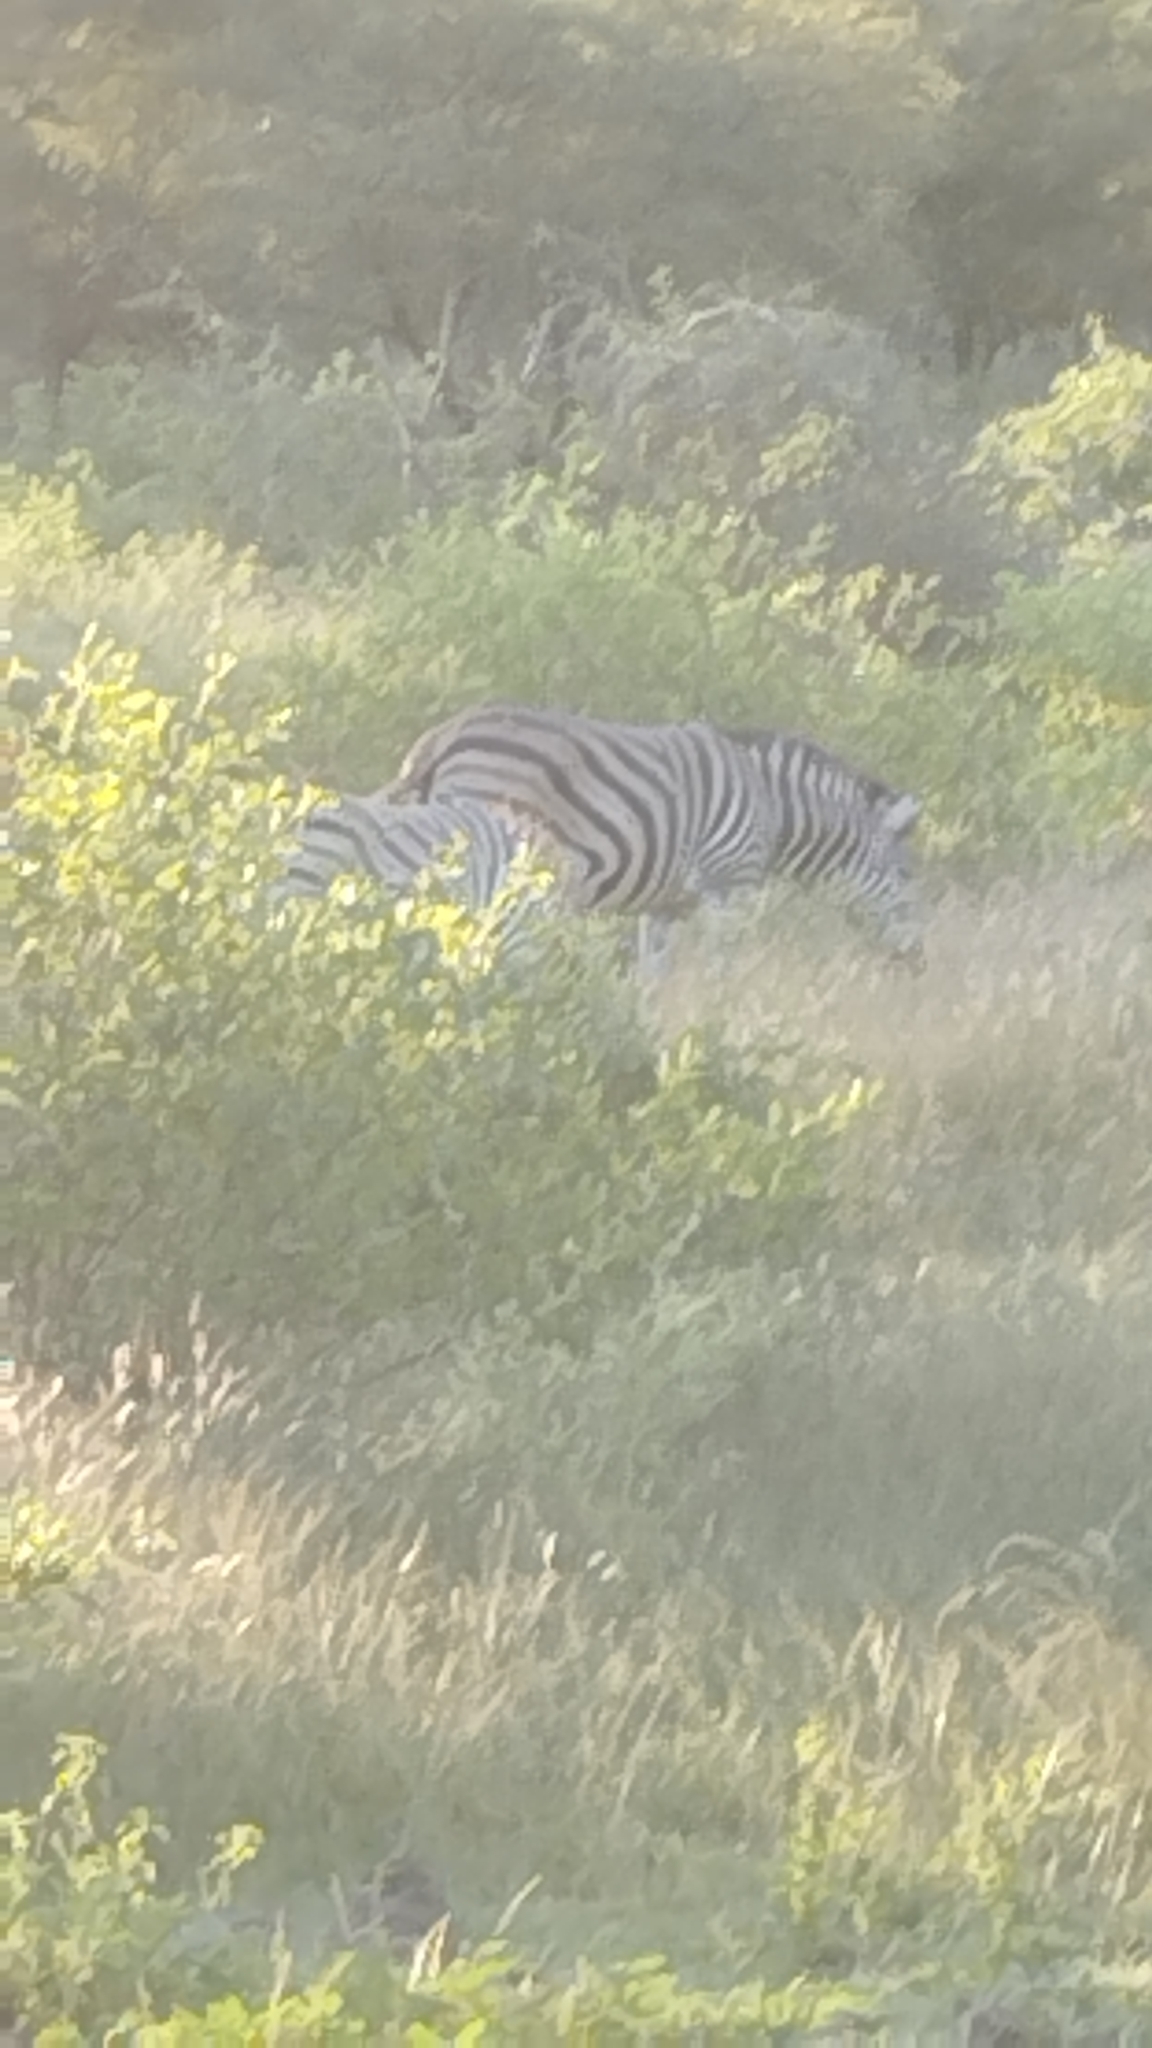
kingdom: Animalia
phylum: Chordata
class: Mammalia
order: Perissodactyla
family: Equidae
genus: Equus
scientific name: Equus quagga
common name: Plains zebra
